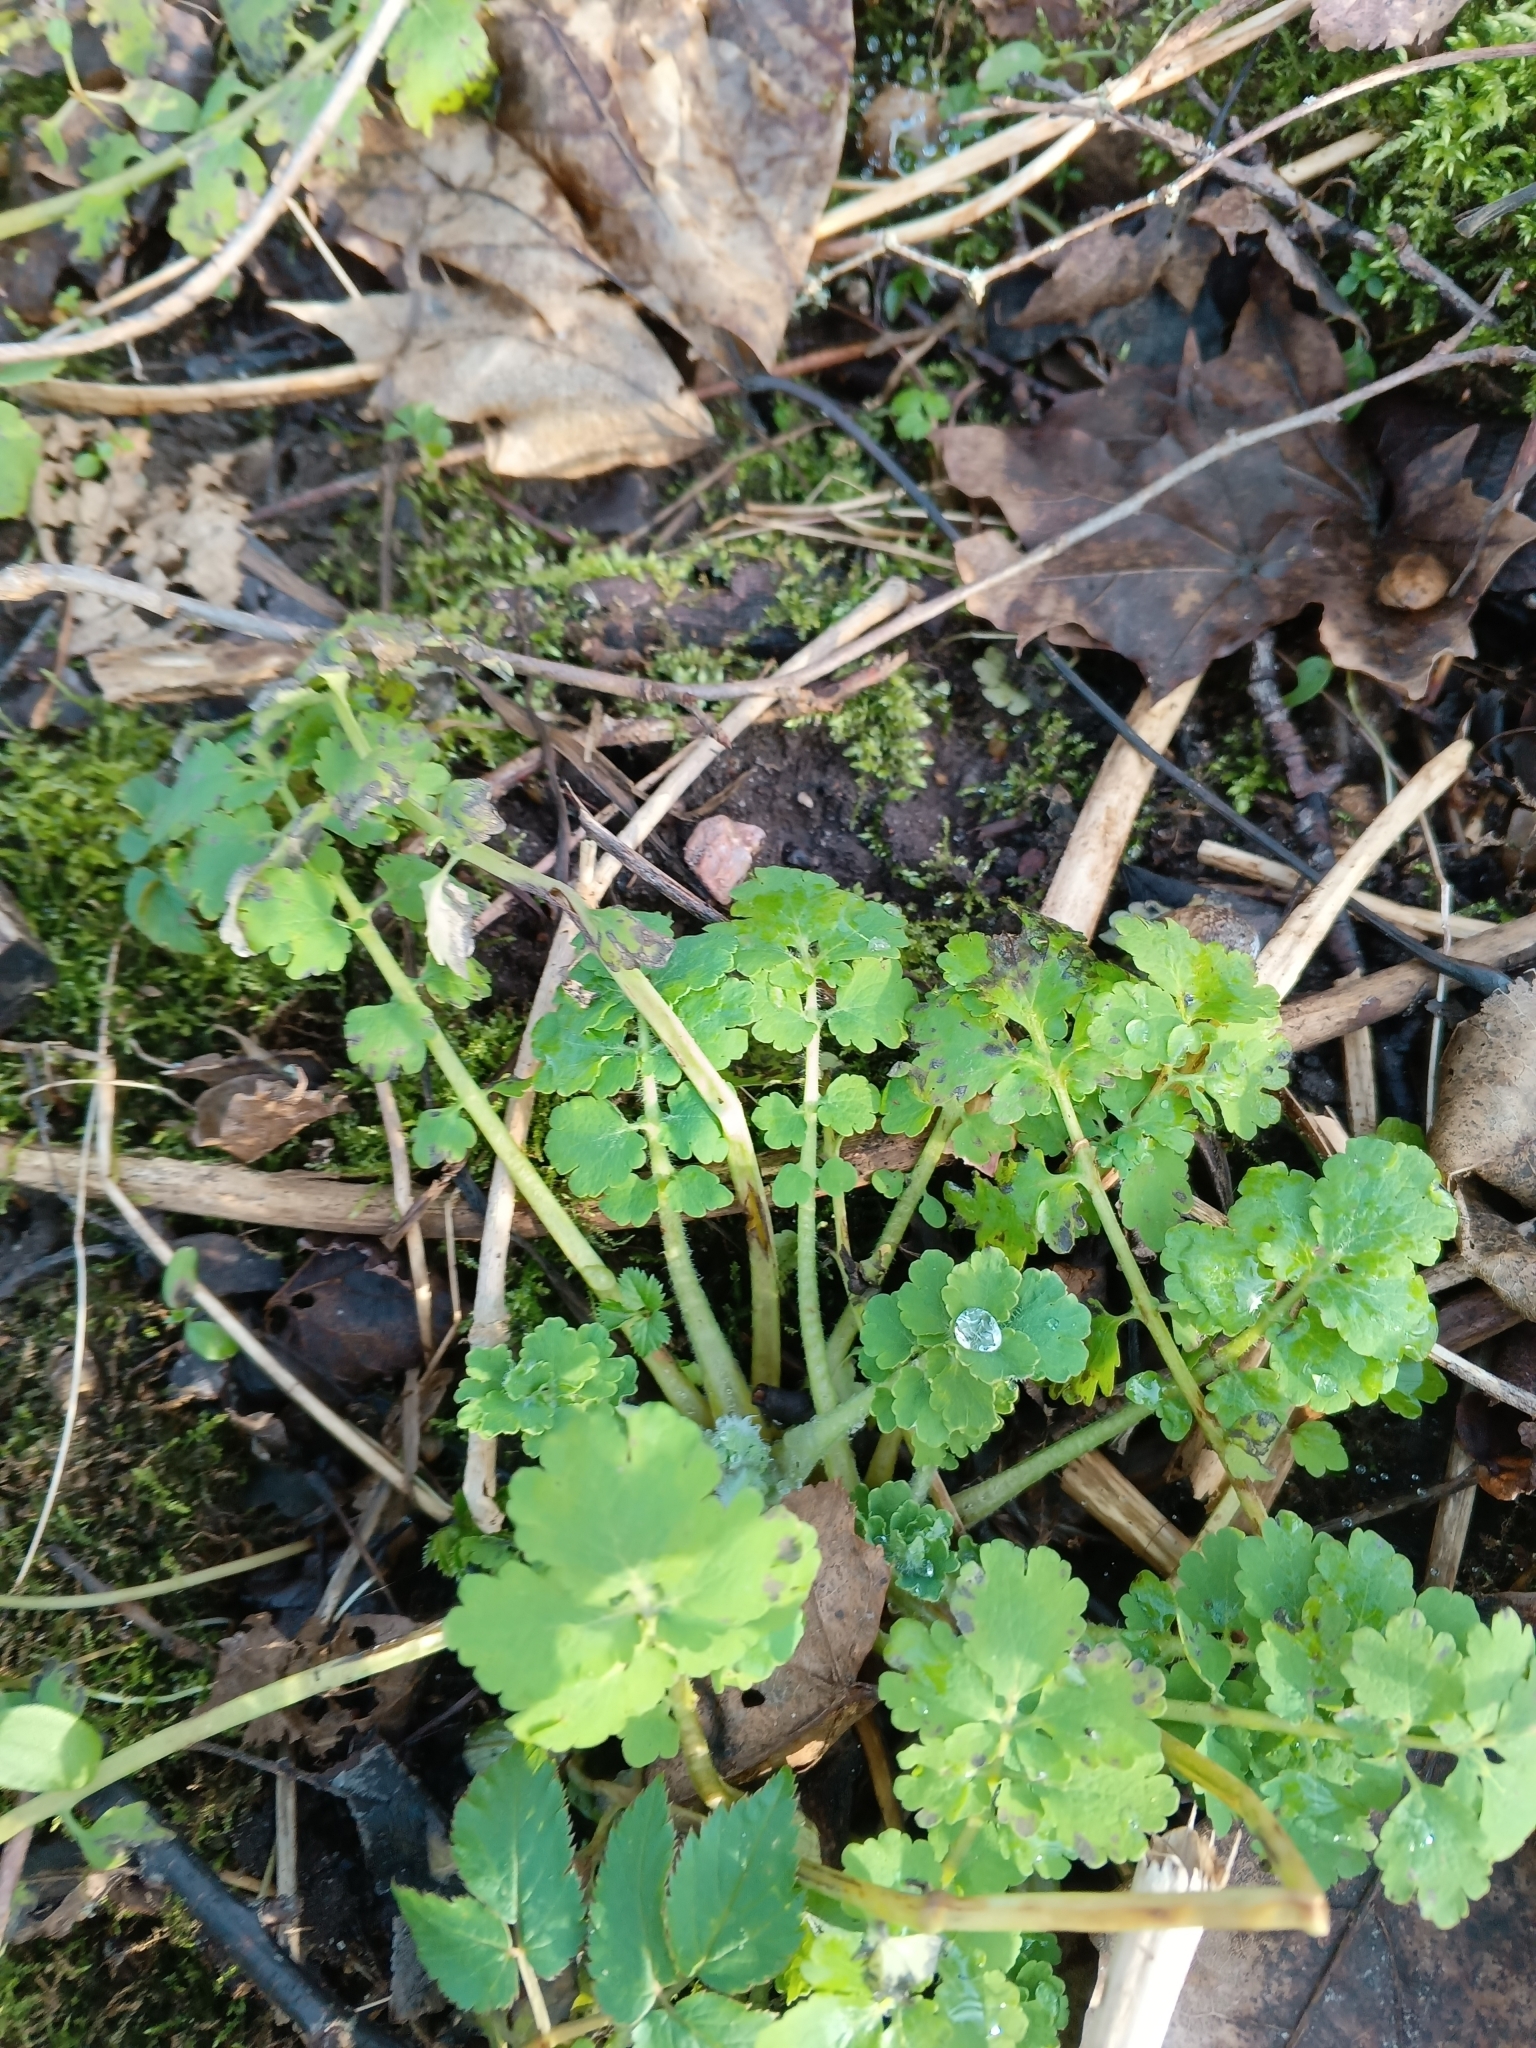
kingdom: Plantae
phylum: Tracheophyta
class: Magnoliopsida
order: Ranunculales
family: Papaveraceae
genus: Chelidonium
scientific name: Chelidonium majus
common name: Greater celandine
